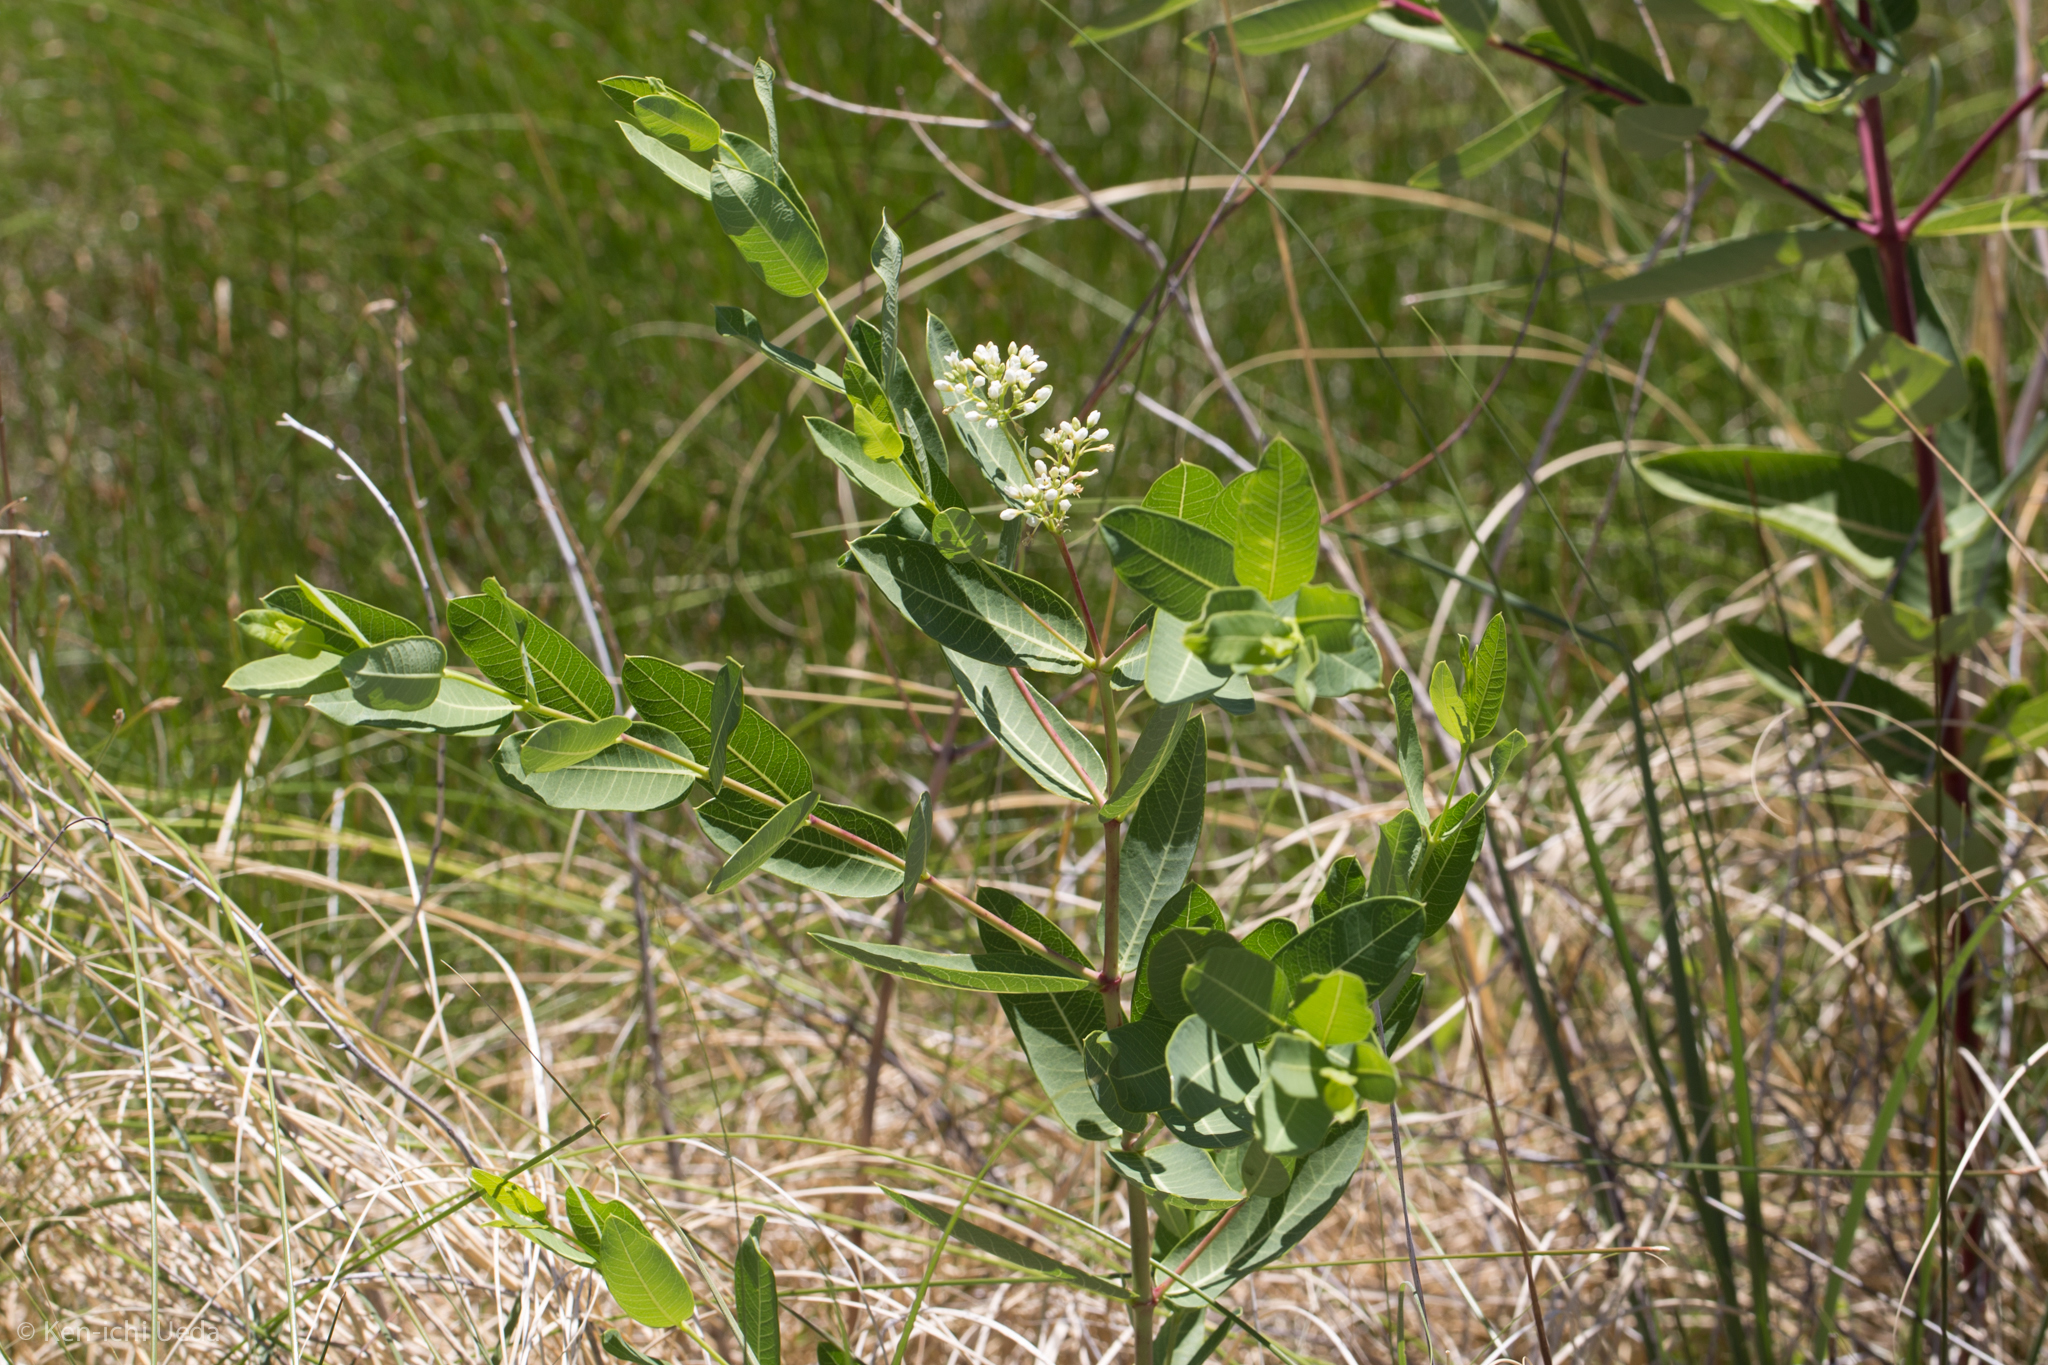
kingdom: Plantae
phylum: Tracheophyta
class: Magnoliopsida
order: Gentianales
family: Apocynaceae
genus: Apocynum
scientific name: Apocynum cannabinum
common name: Hemp dogbane
